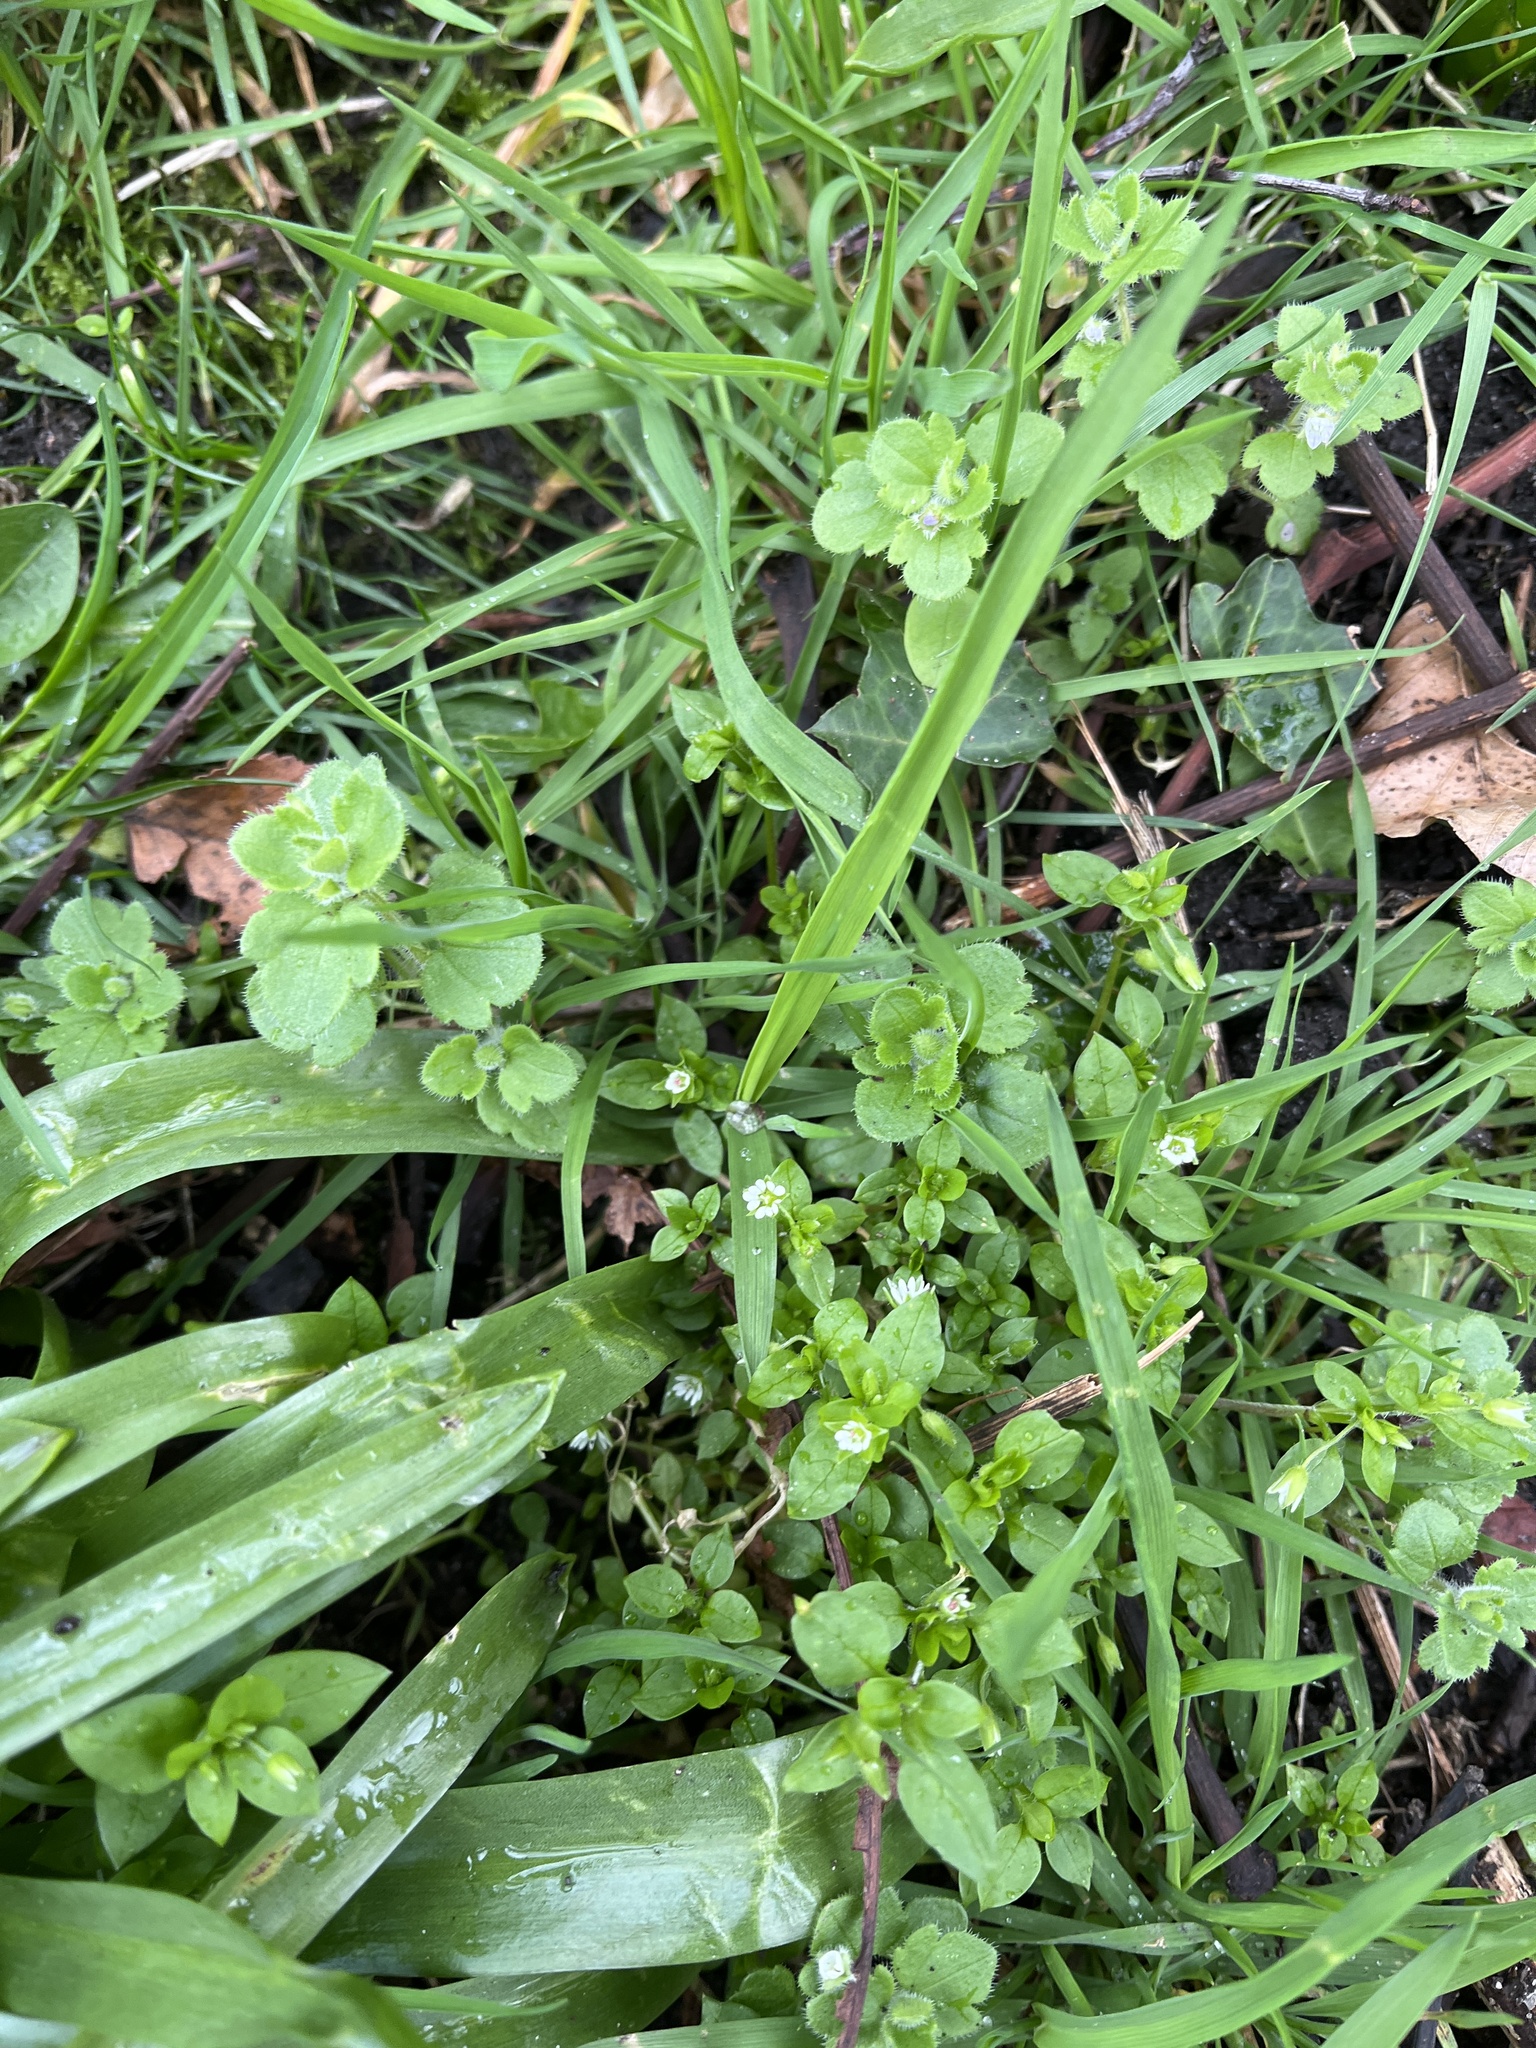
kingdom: Plantae
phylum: Tracheophyta
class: Magnoliopsida
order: Caryophyllales
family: Caryophyllaceae
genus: Stellaria
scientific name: Stellaria media
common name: Common chickweed
